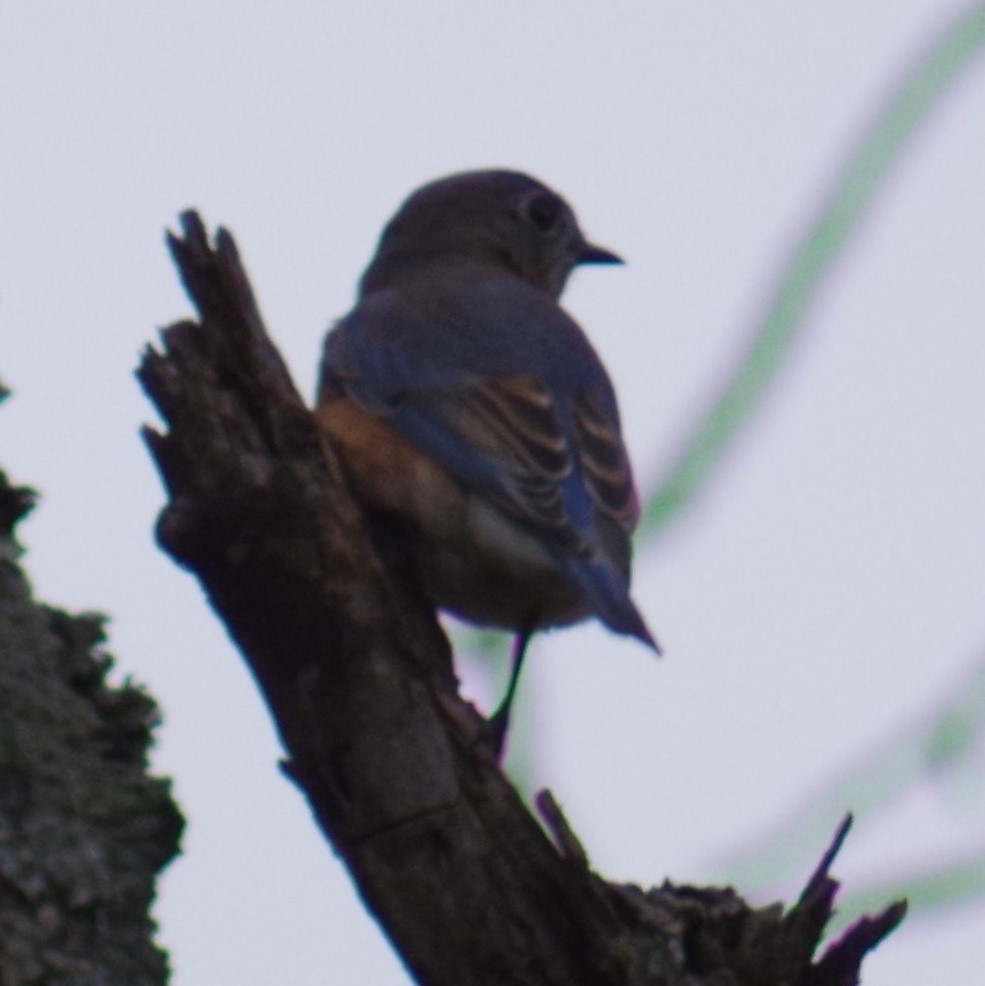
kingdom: Animalia
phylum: Chordata
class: Aves
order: Passeriformes
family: Turdidae
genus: Sialia
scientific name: Sialia sialis
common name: Eastern bluebird
